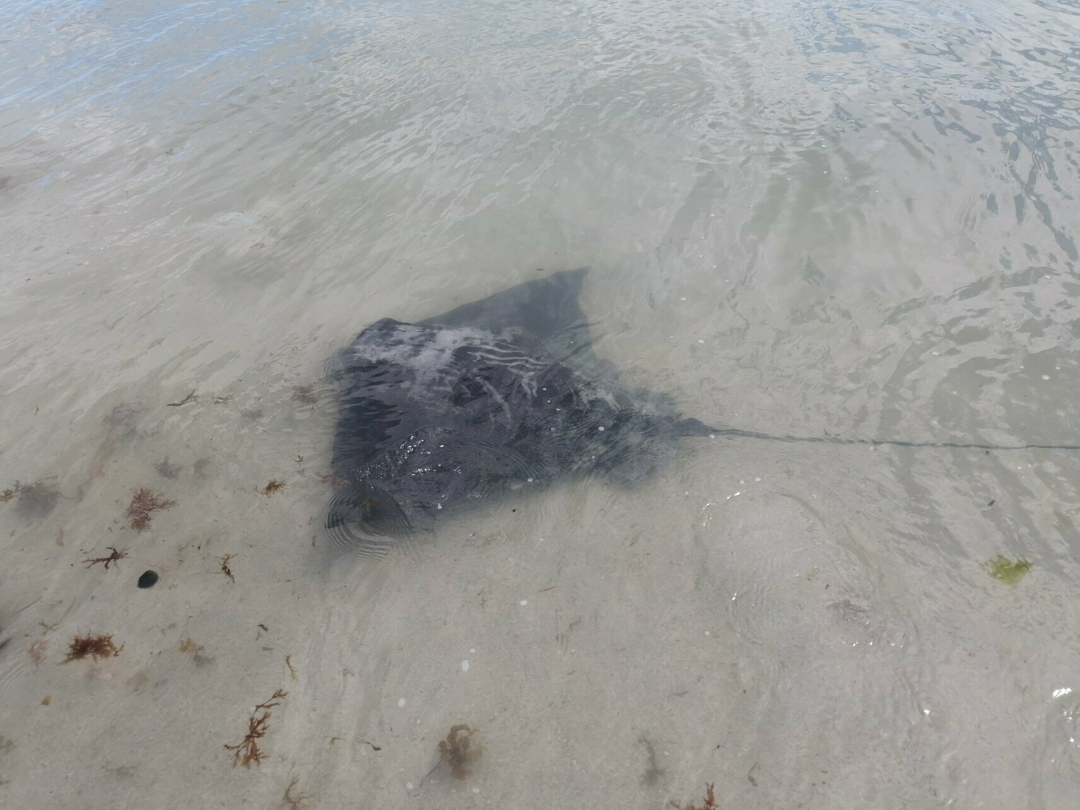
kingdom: Animalia
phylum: Chordata
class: Elasmobranchii
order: Myliobatiformes
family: Myliobatidae
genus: Myliobatis
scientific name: Myliobatis tenuicaudatus
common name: Eagle ray
